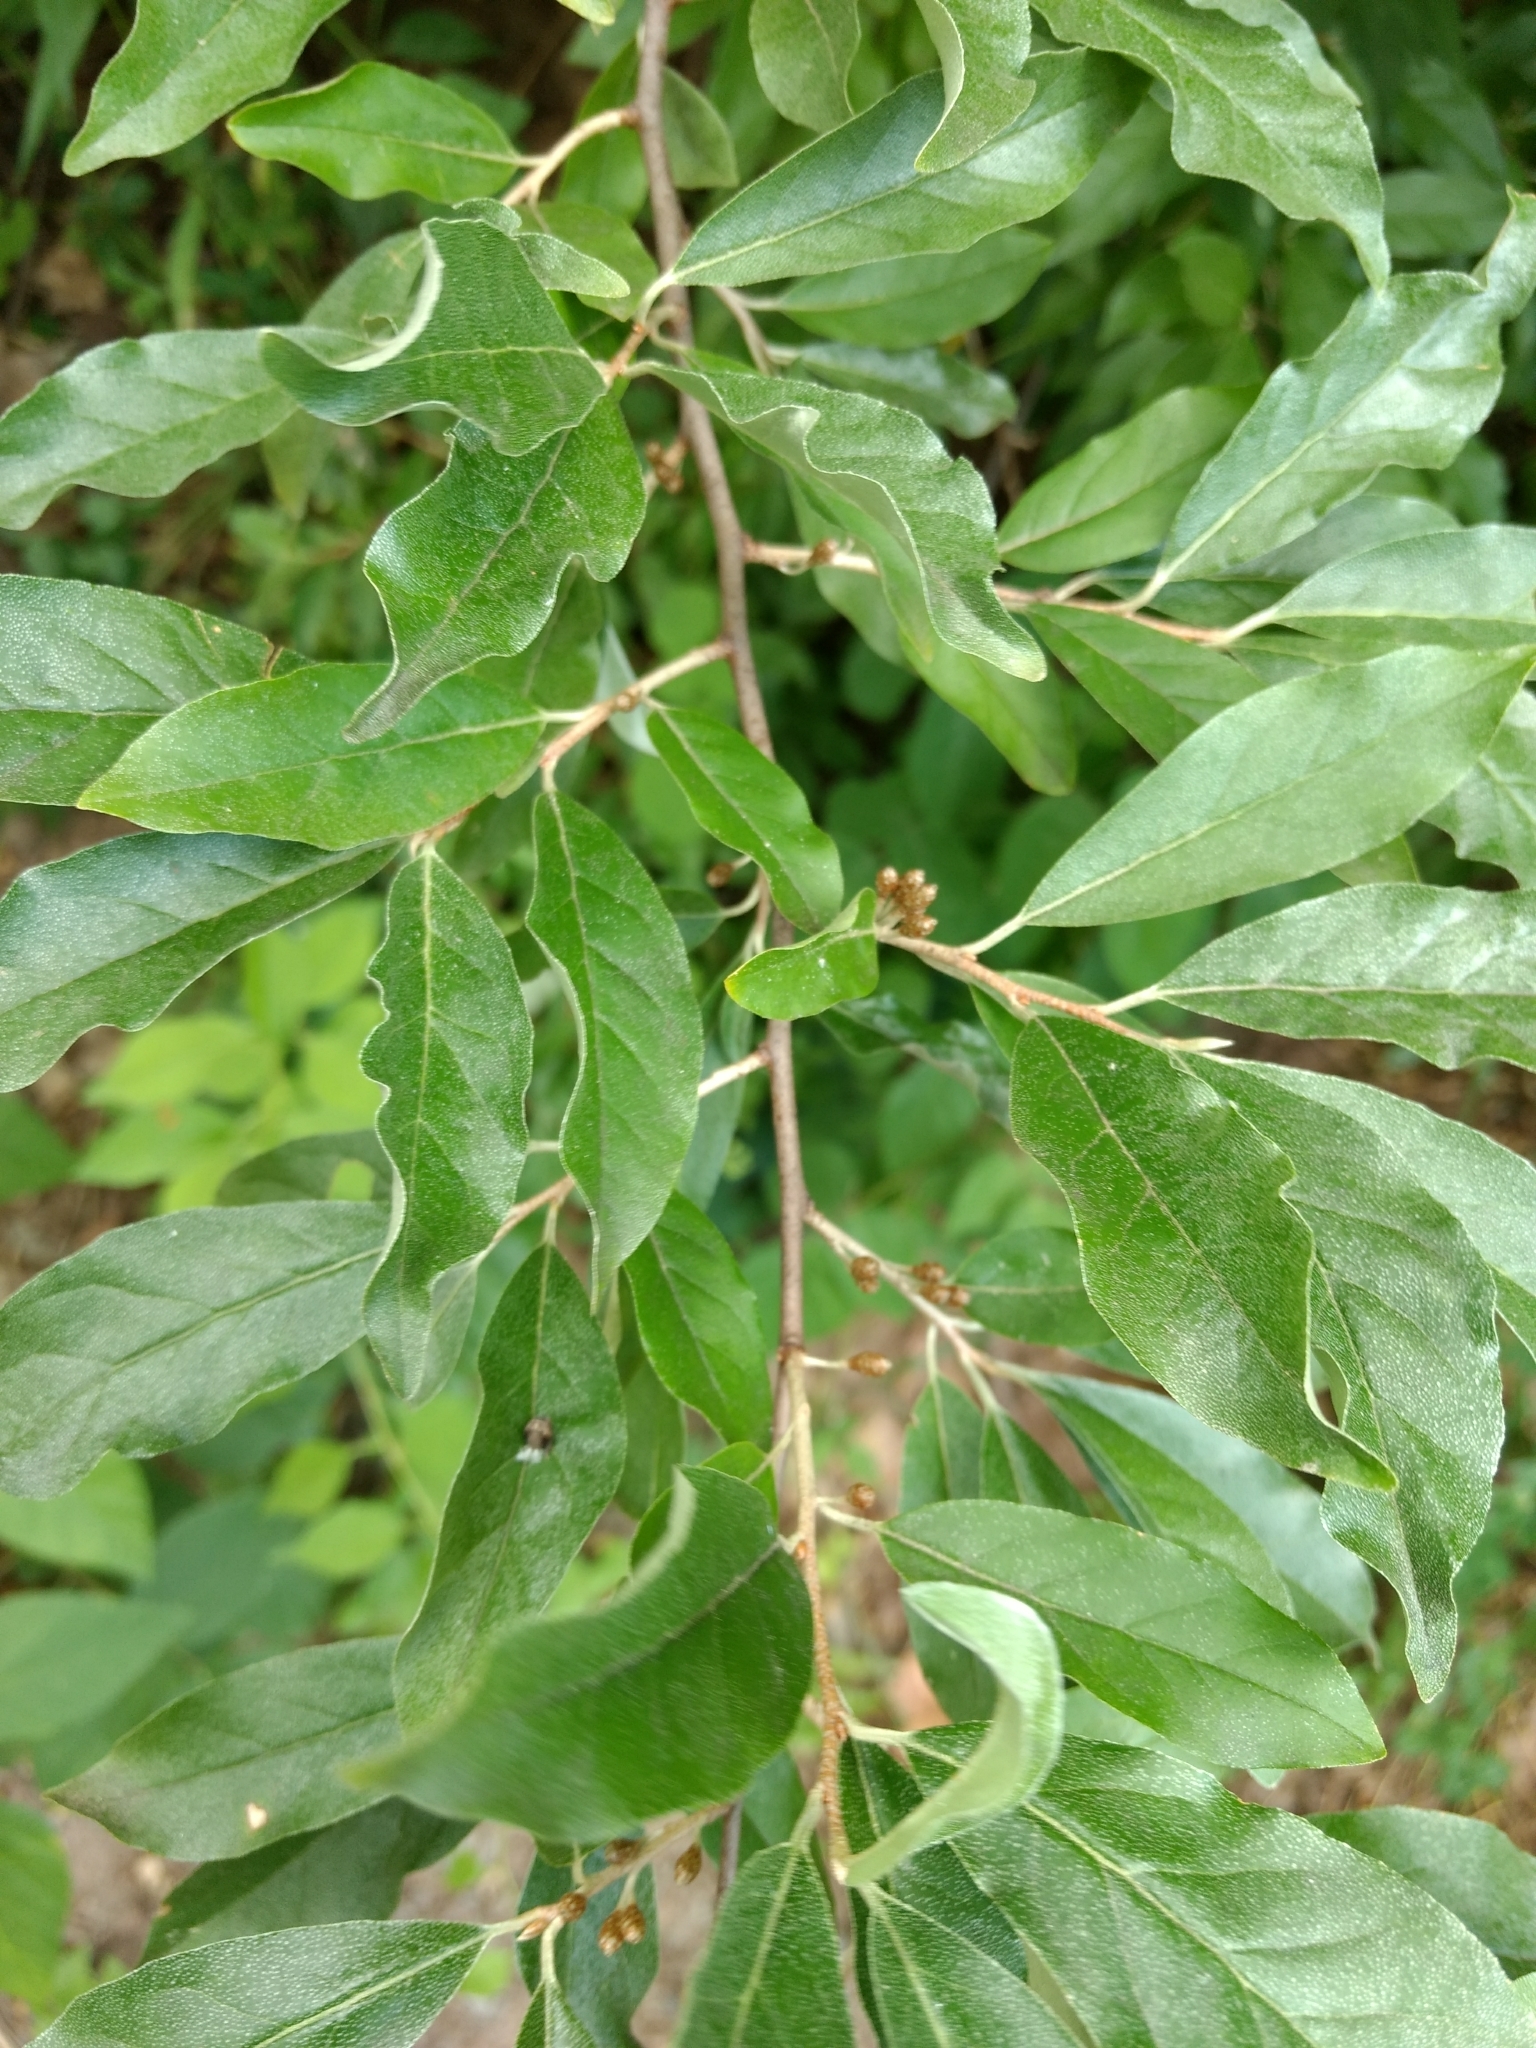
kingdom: Plantae
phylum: Tracheophyta
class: Magnoliopsida
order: Rosales
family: Elaeagnaceae
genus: Elaeagnus
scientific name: Elaeagnus umbellata
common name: Autumn olive
